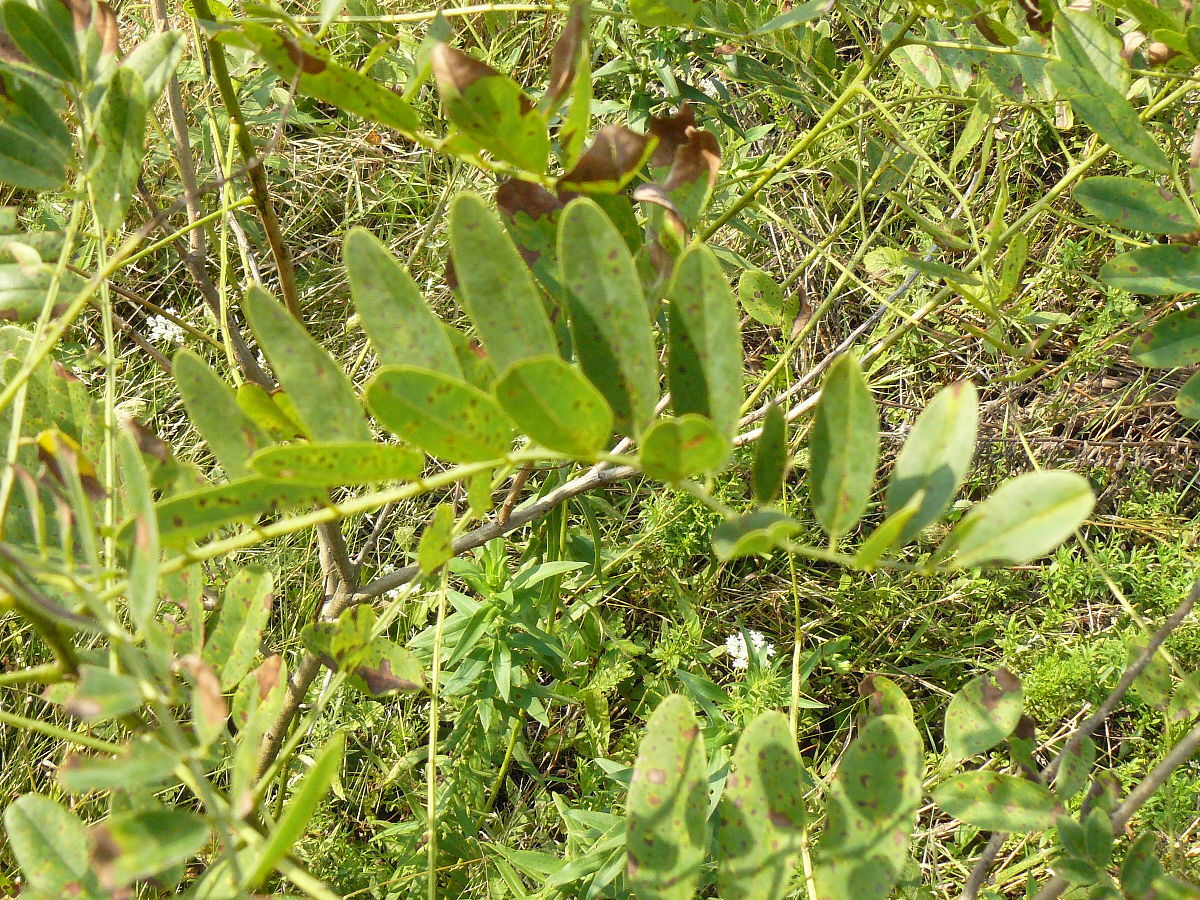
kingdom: Plantae
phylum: Tracheophyta
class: Magnoliopsida
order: Fabales
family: Fabaceae
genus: Amorpha
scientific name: Amorpha fruticosa
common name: False indigo
